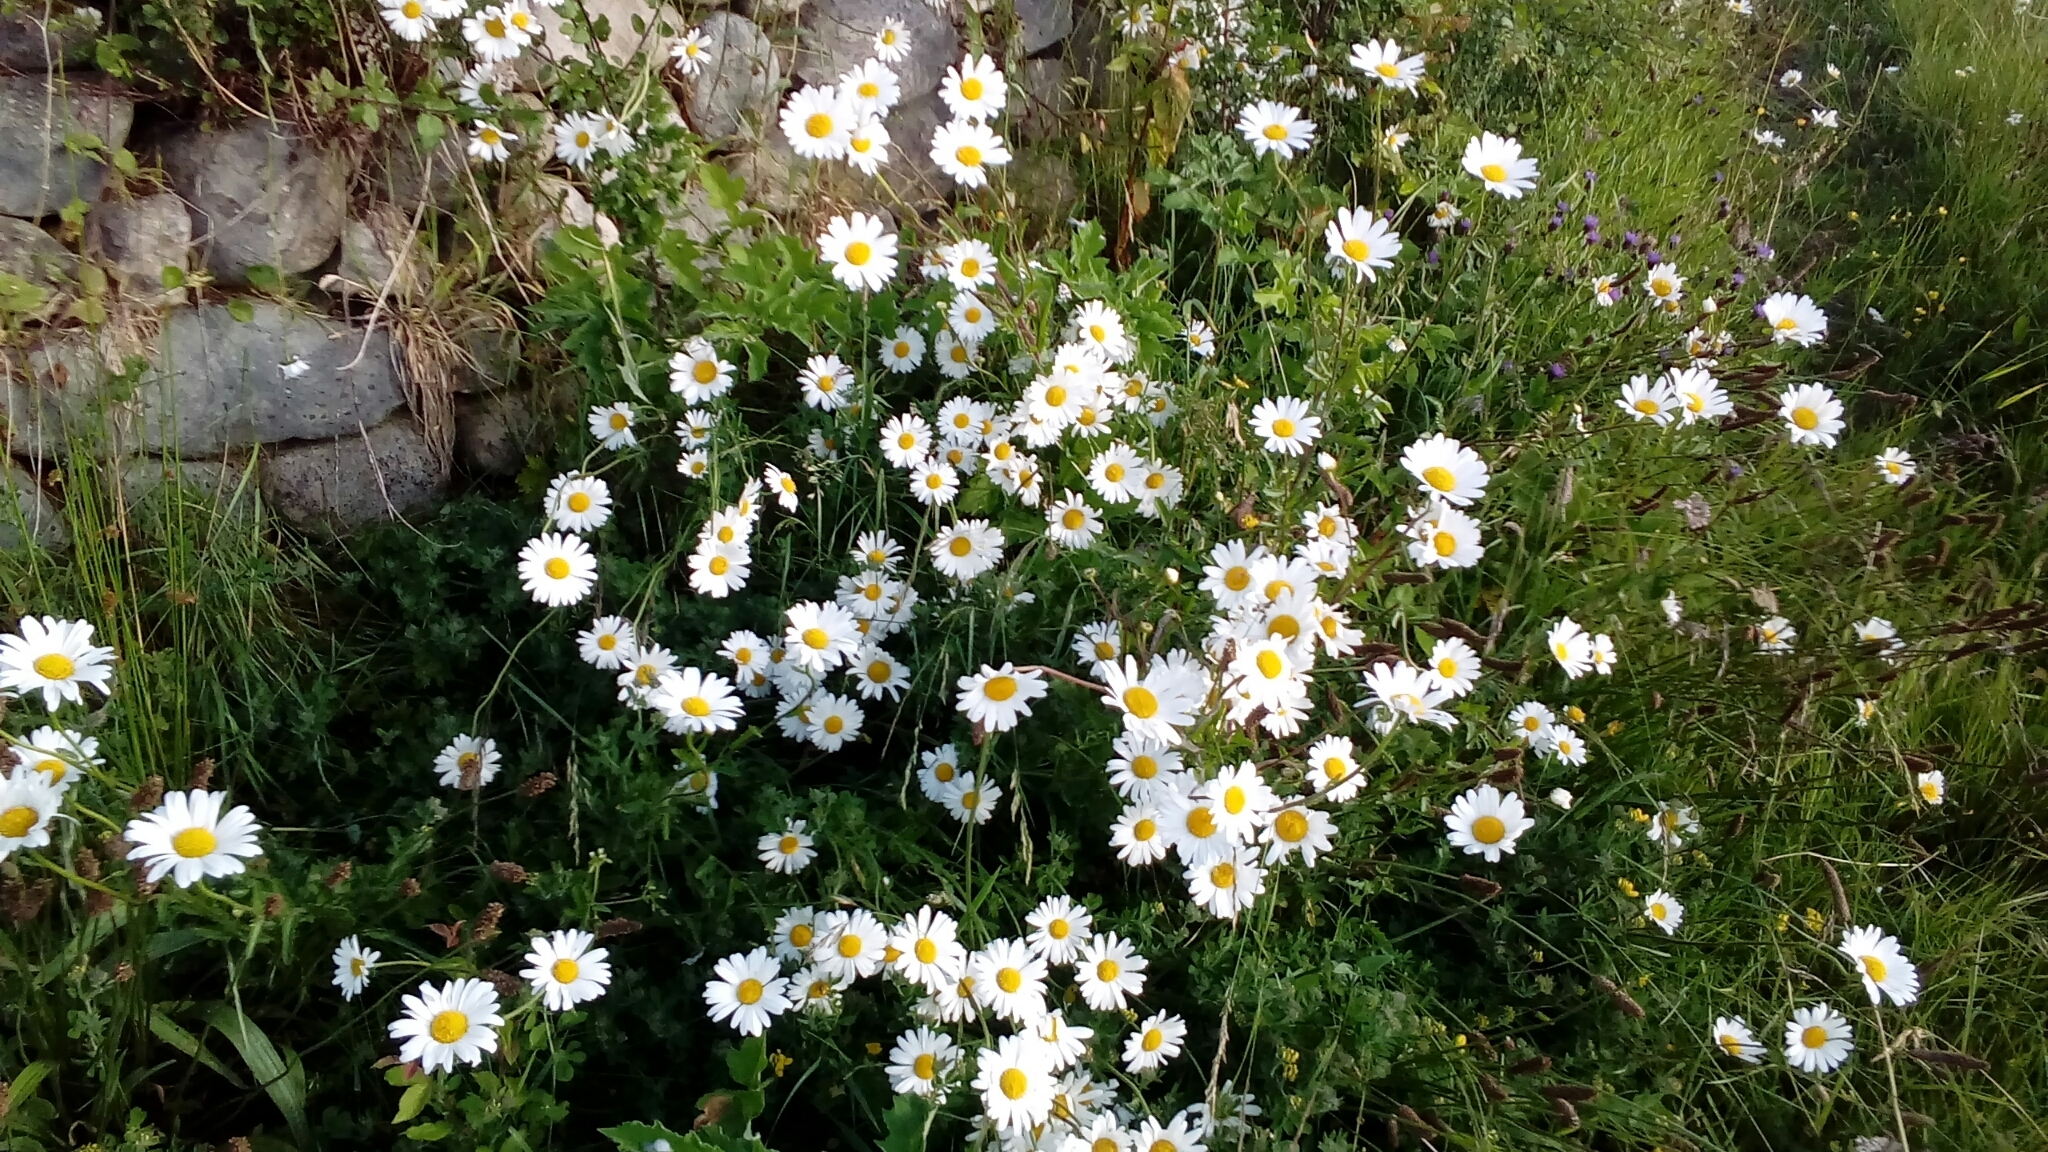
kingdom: Plantae
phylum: Tracheophyta
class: Magnoliopsida
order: Asterales
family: Asteraceae
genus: Leucanthemum
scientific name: Leucanthemum vulgare
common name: Oxeye daisy
